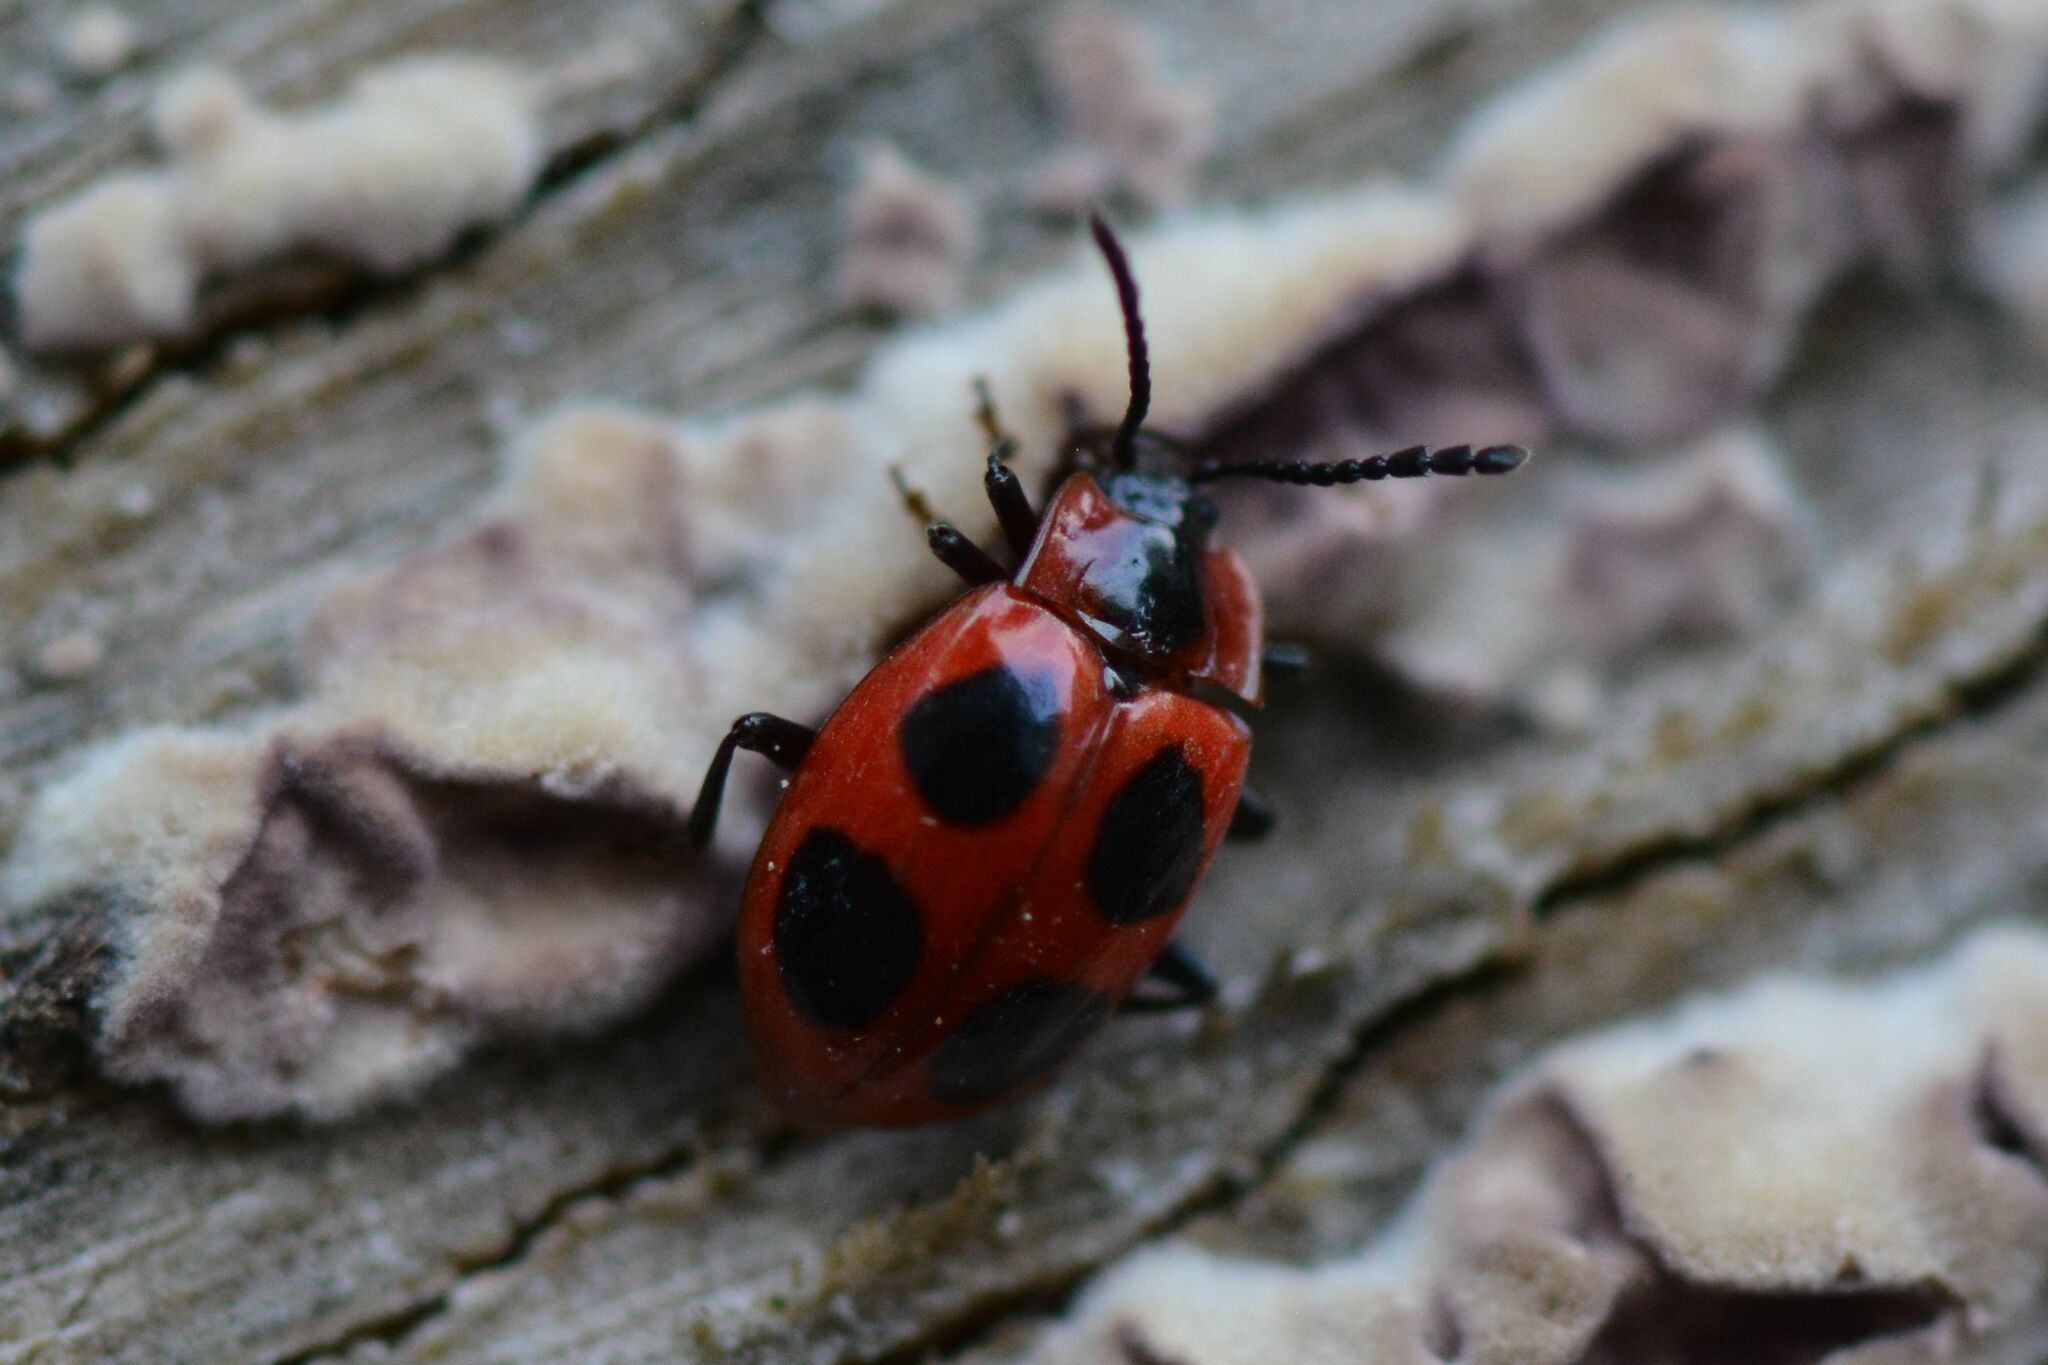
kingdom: Animalia
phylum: Arthropoda
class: Insecta
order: Coleoptera
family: Endomychidae
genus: Endomychus
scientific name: Endomychus coccineus
